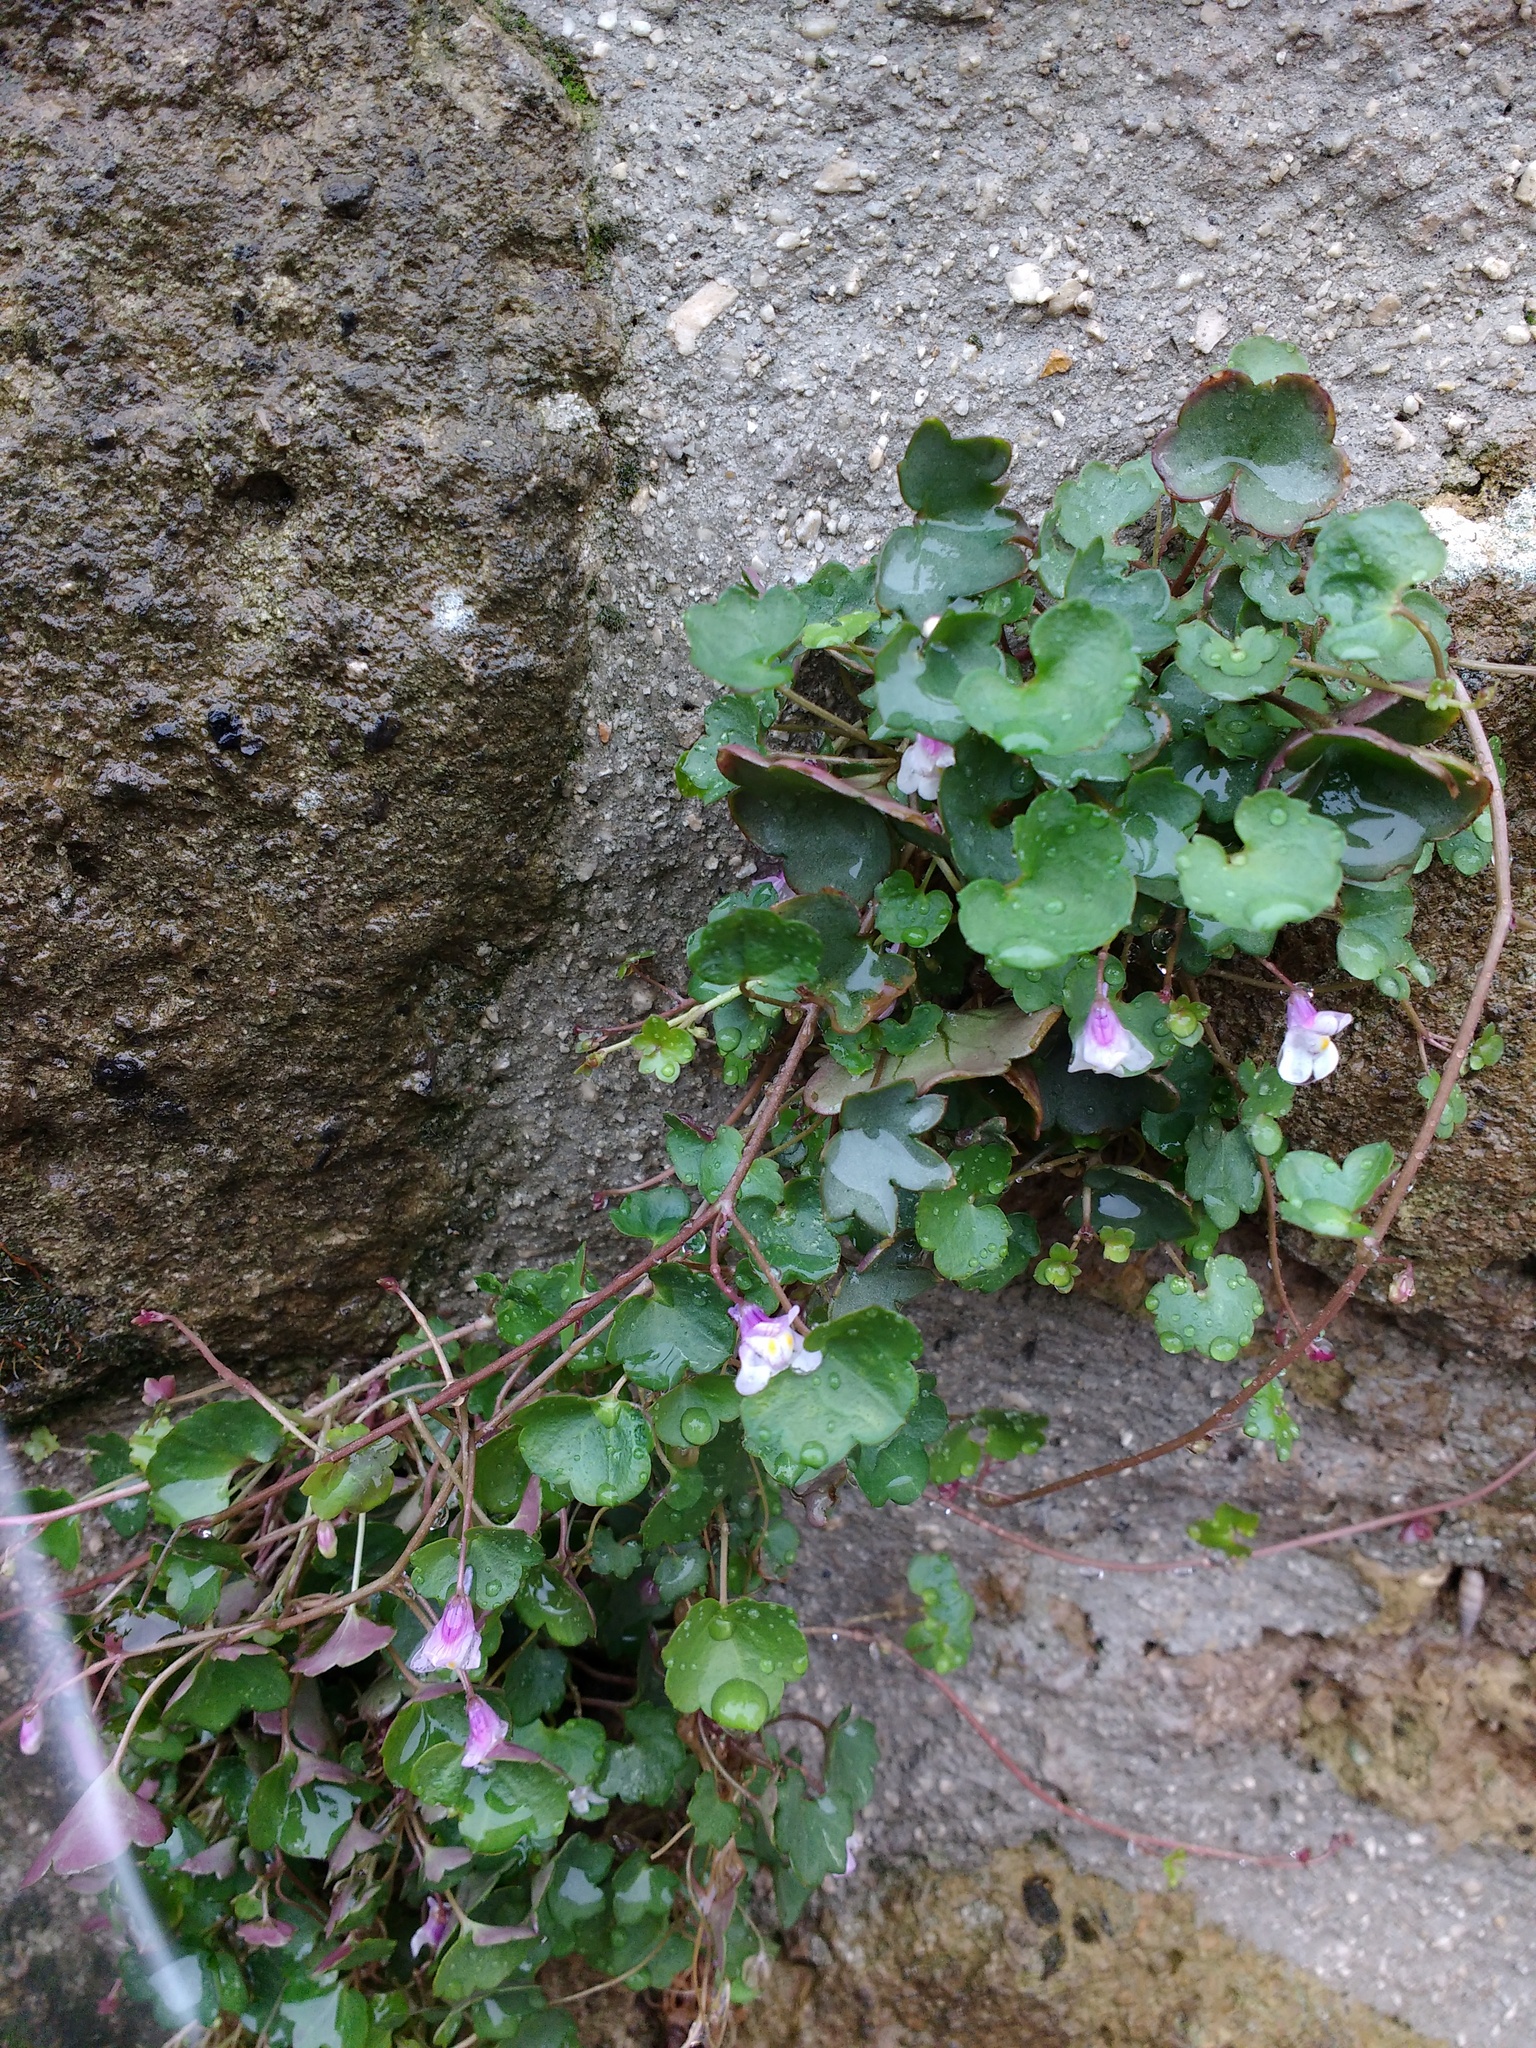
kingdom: Plantae
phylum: Tracheophyta
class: Magnoliopsida
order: Lamiales
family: Plantaginaceae
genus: Cymbalaria
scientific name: Cymbalaria muralis
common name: Ivy-leaved toadflax
